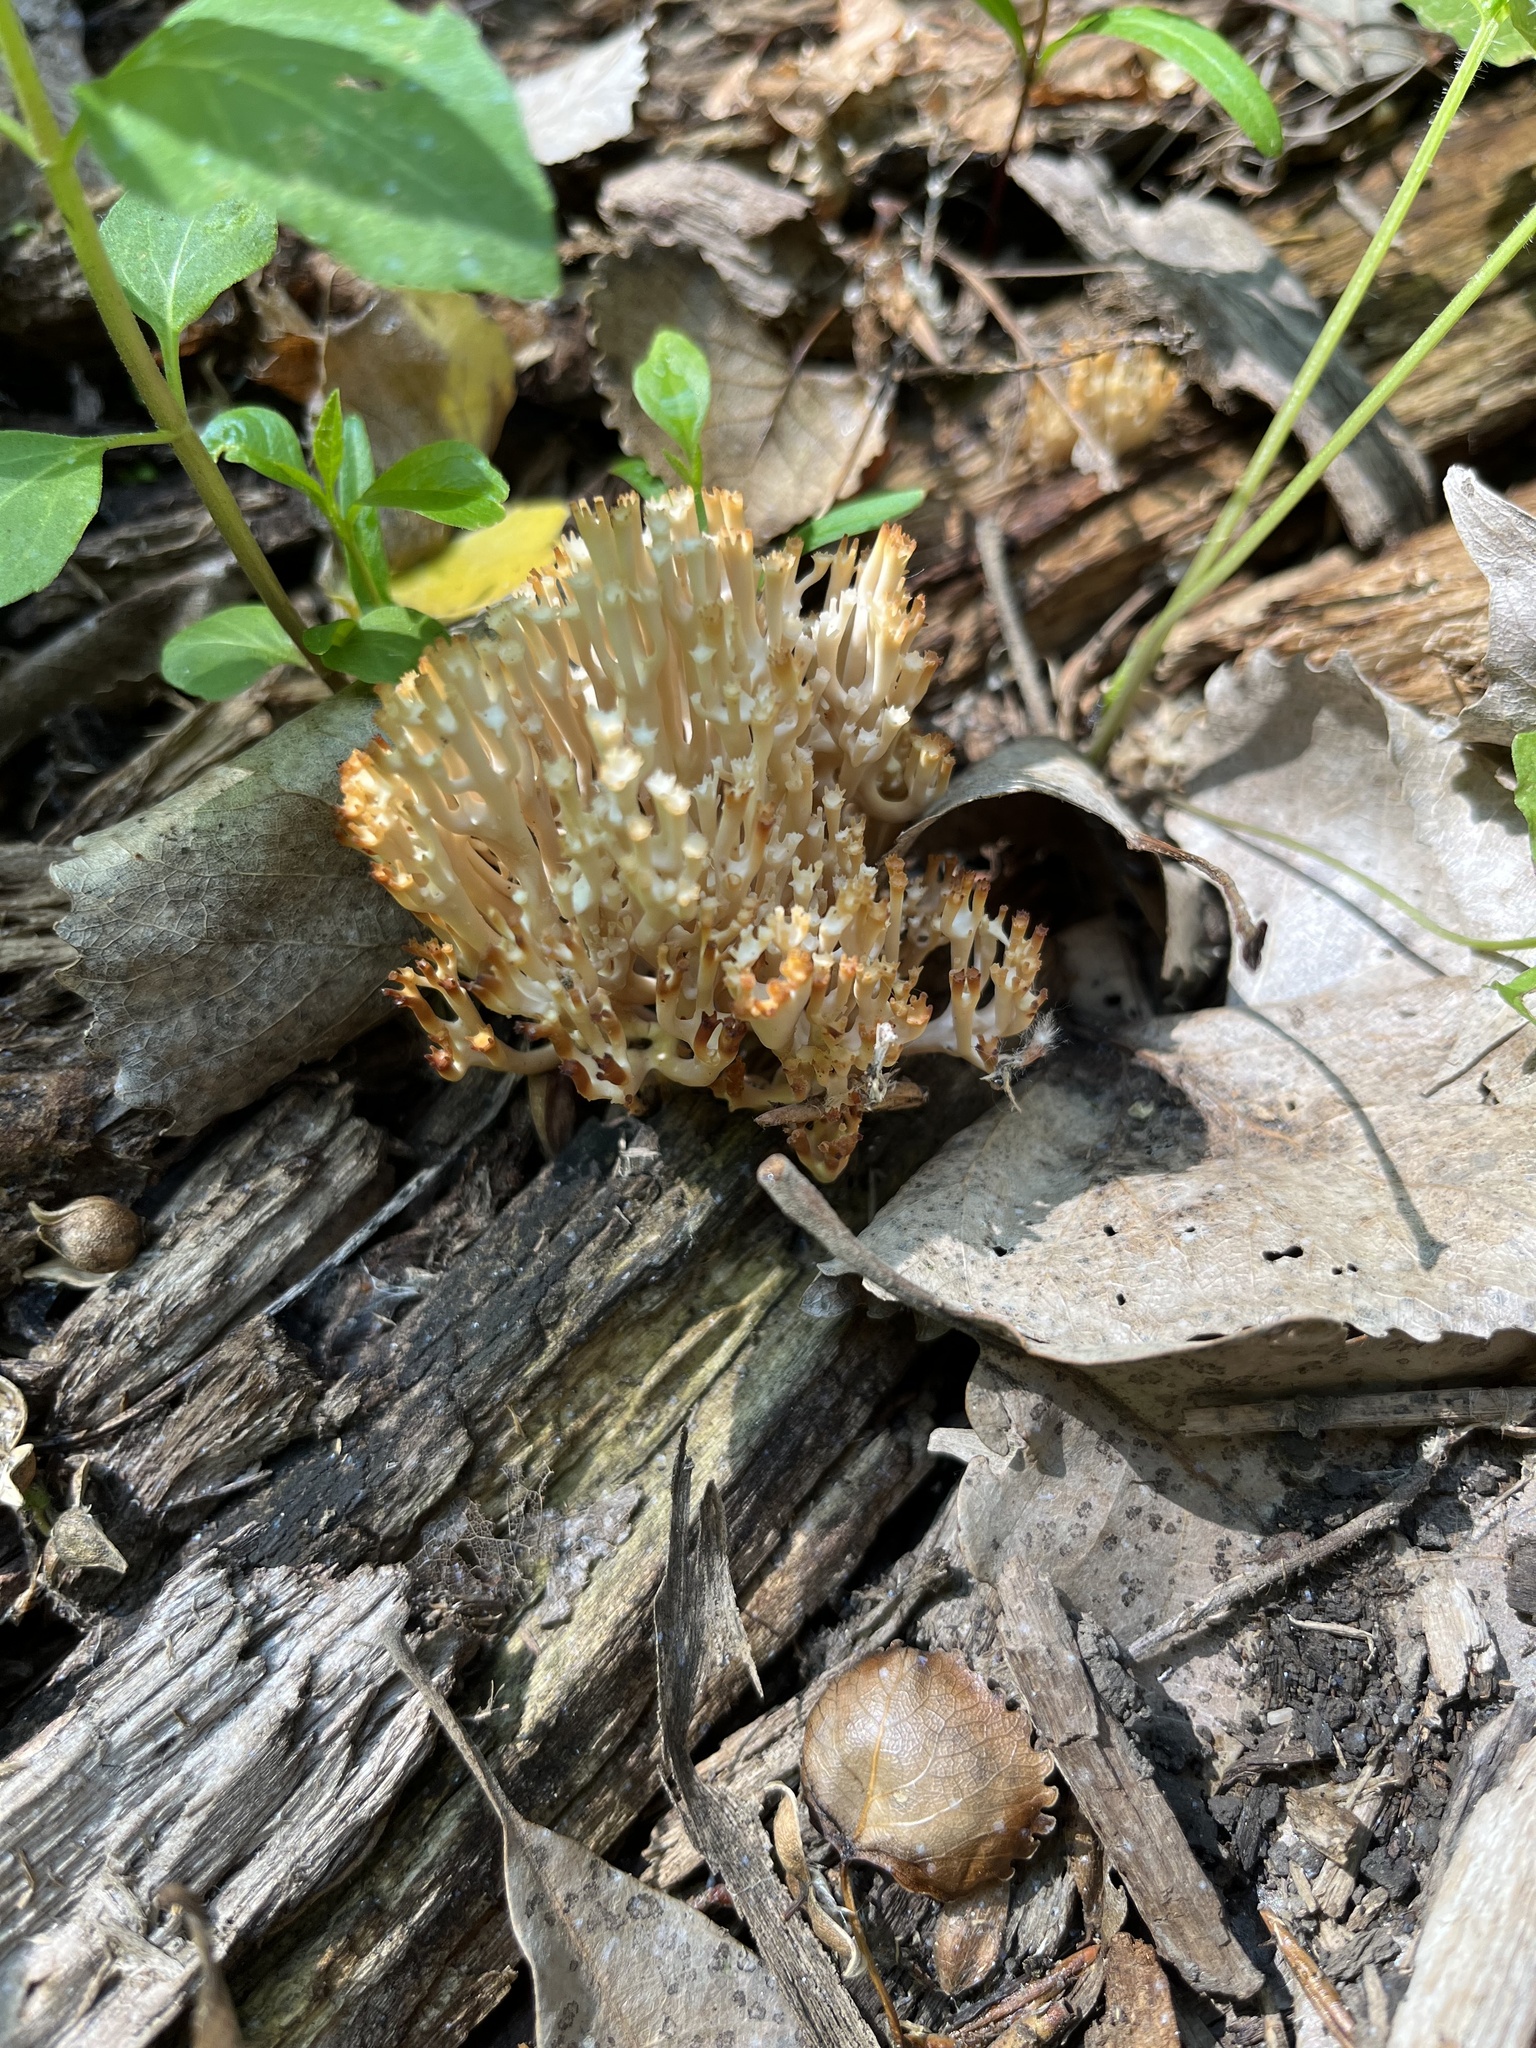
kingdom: Fungi
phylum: Basidiomycota
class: Agaricomycetes
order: Russulales
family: Auriscalpiaceae
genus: Artomyces
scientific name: Artomyces pyxidatus
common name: Crown-tipped coral fungus
